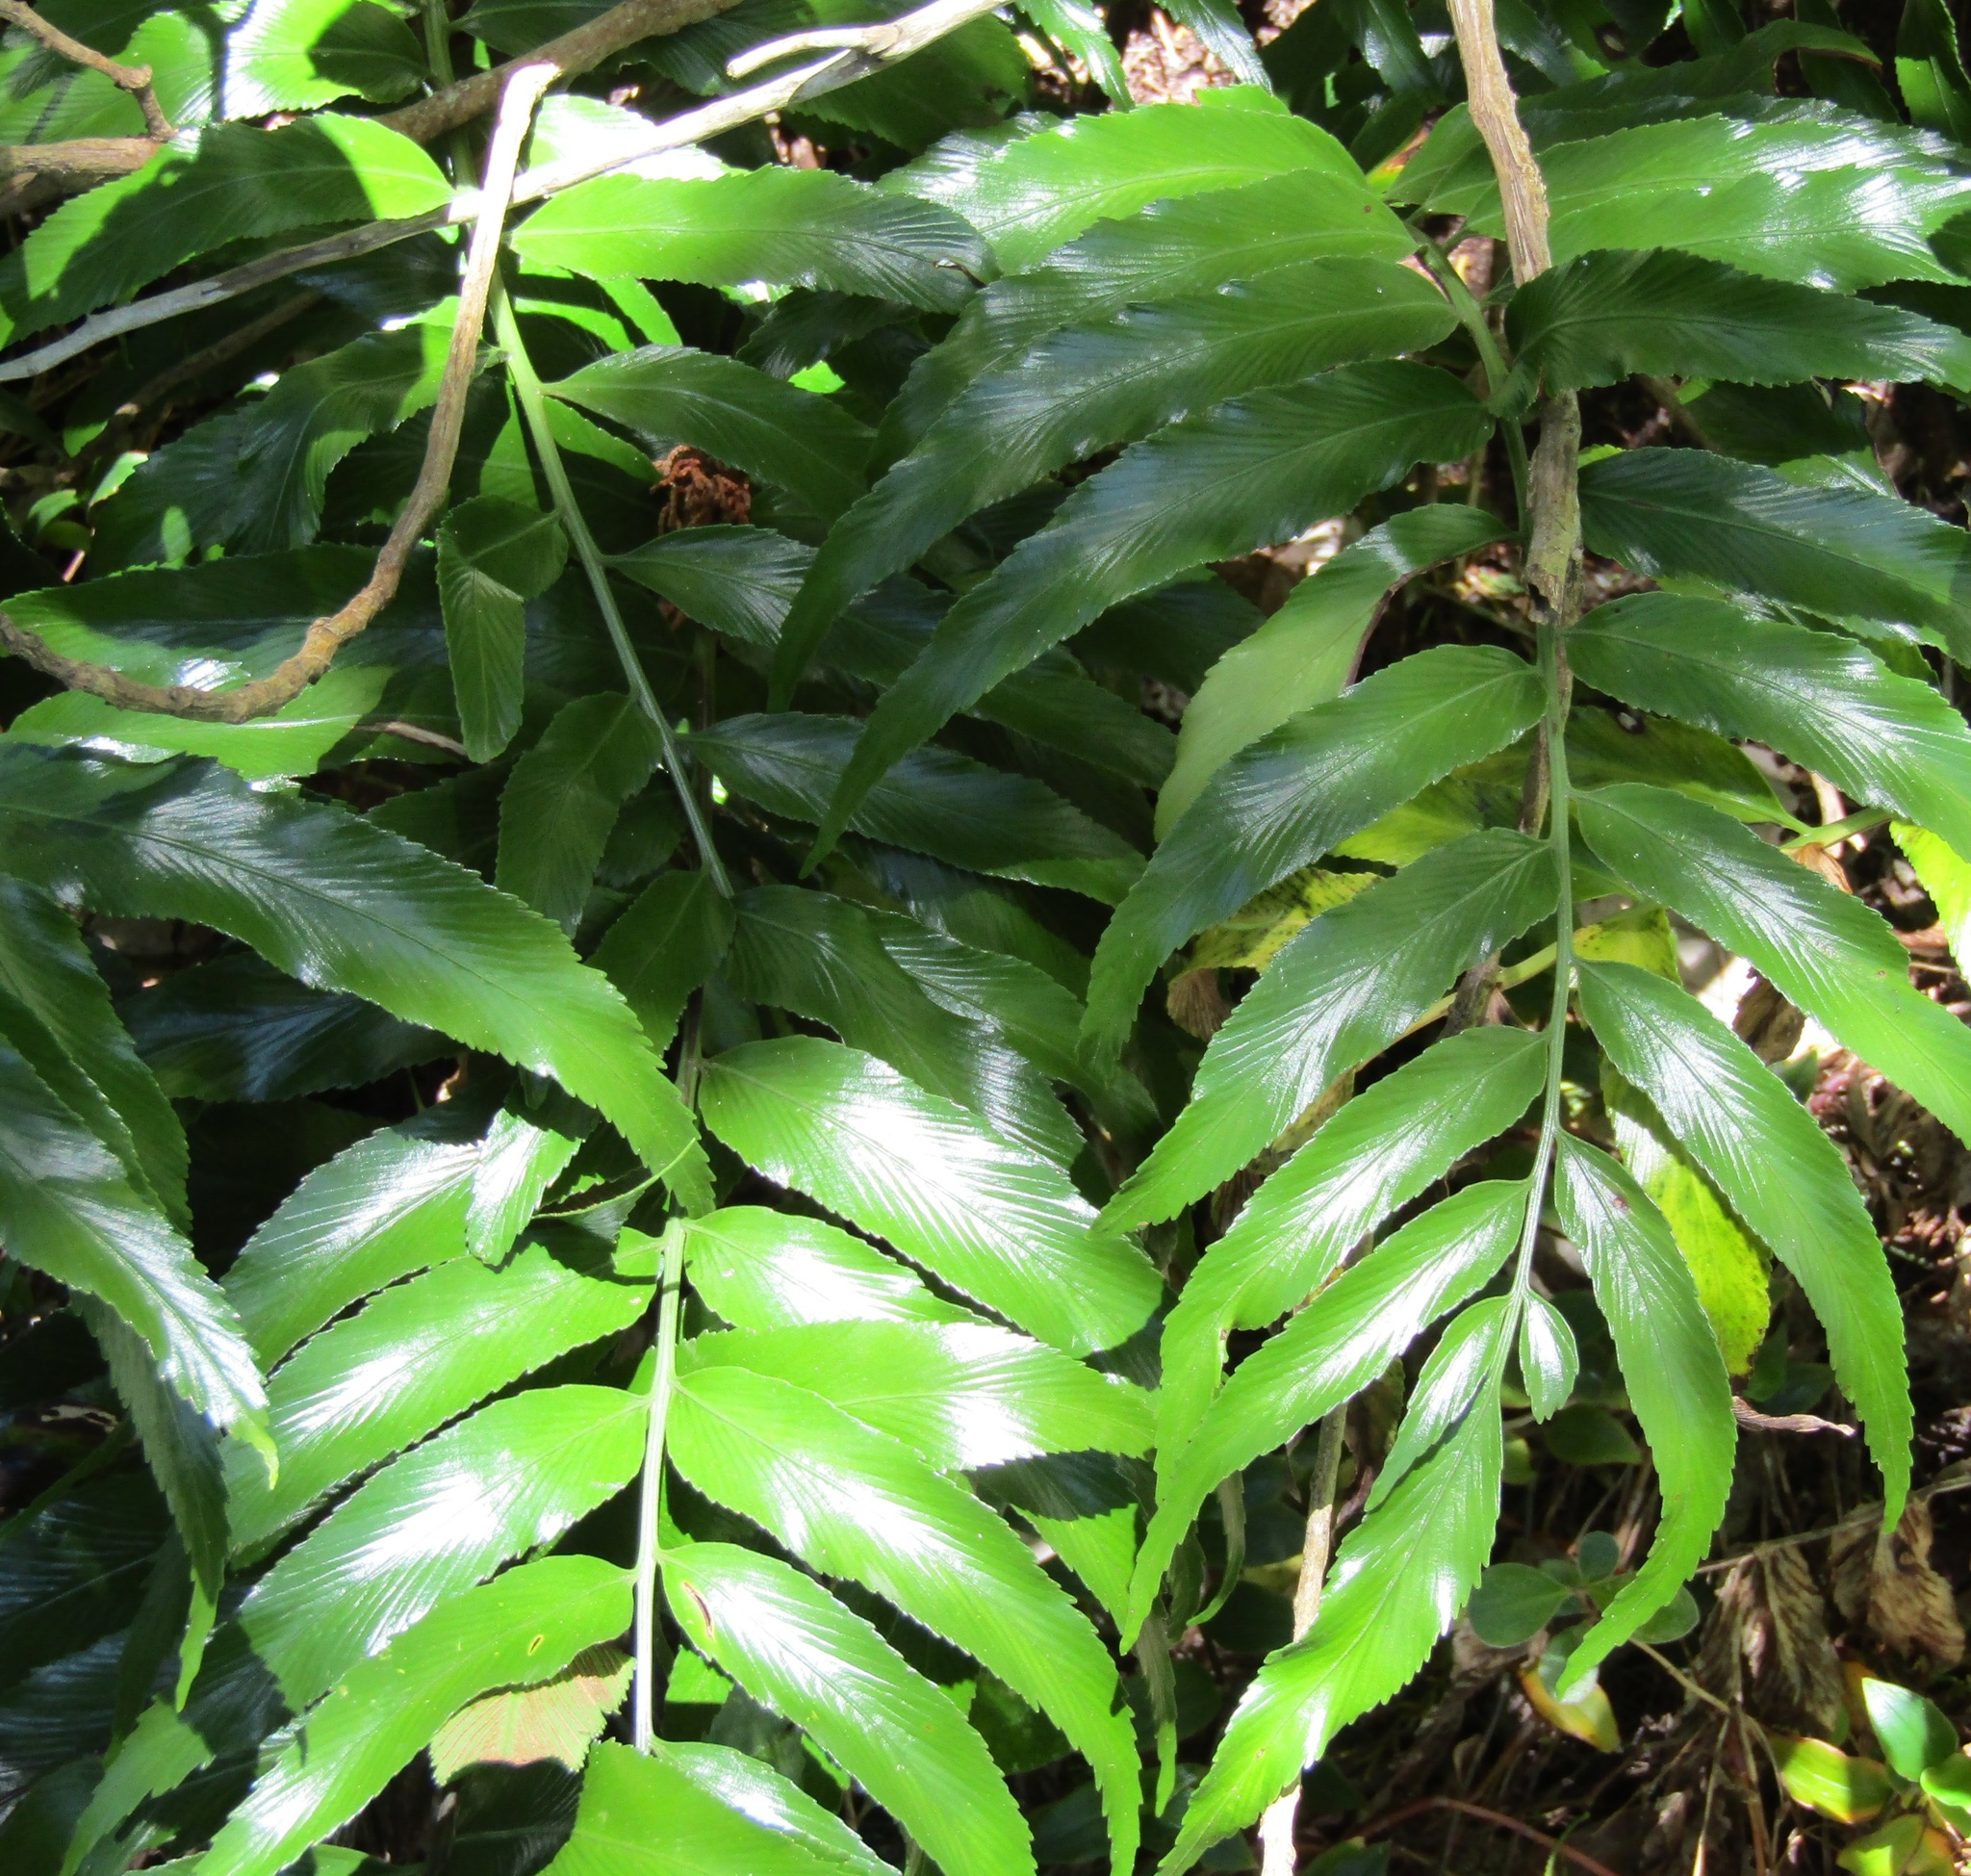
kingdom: Plantae
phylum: Tracheophyta
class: Polypodiopsida
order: Polypodiales
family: Aspleniaceae
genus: Asplenium
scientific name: Asplenium oblongifolium
